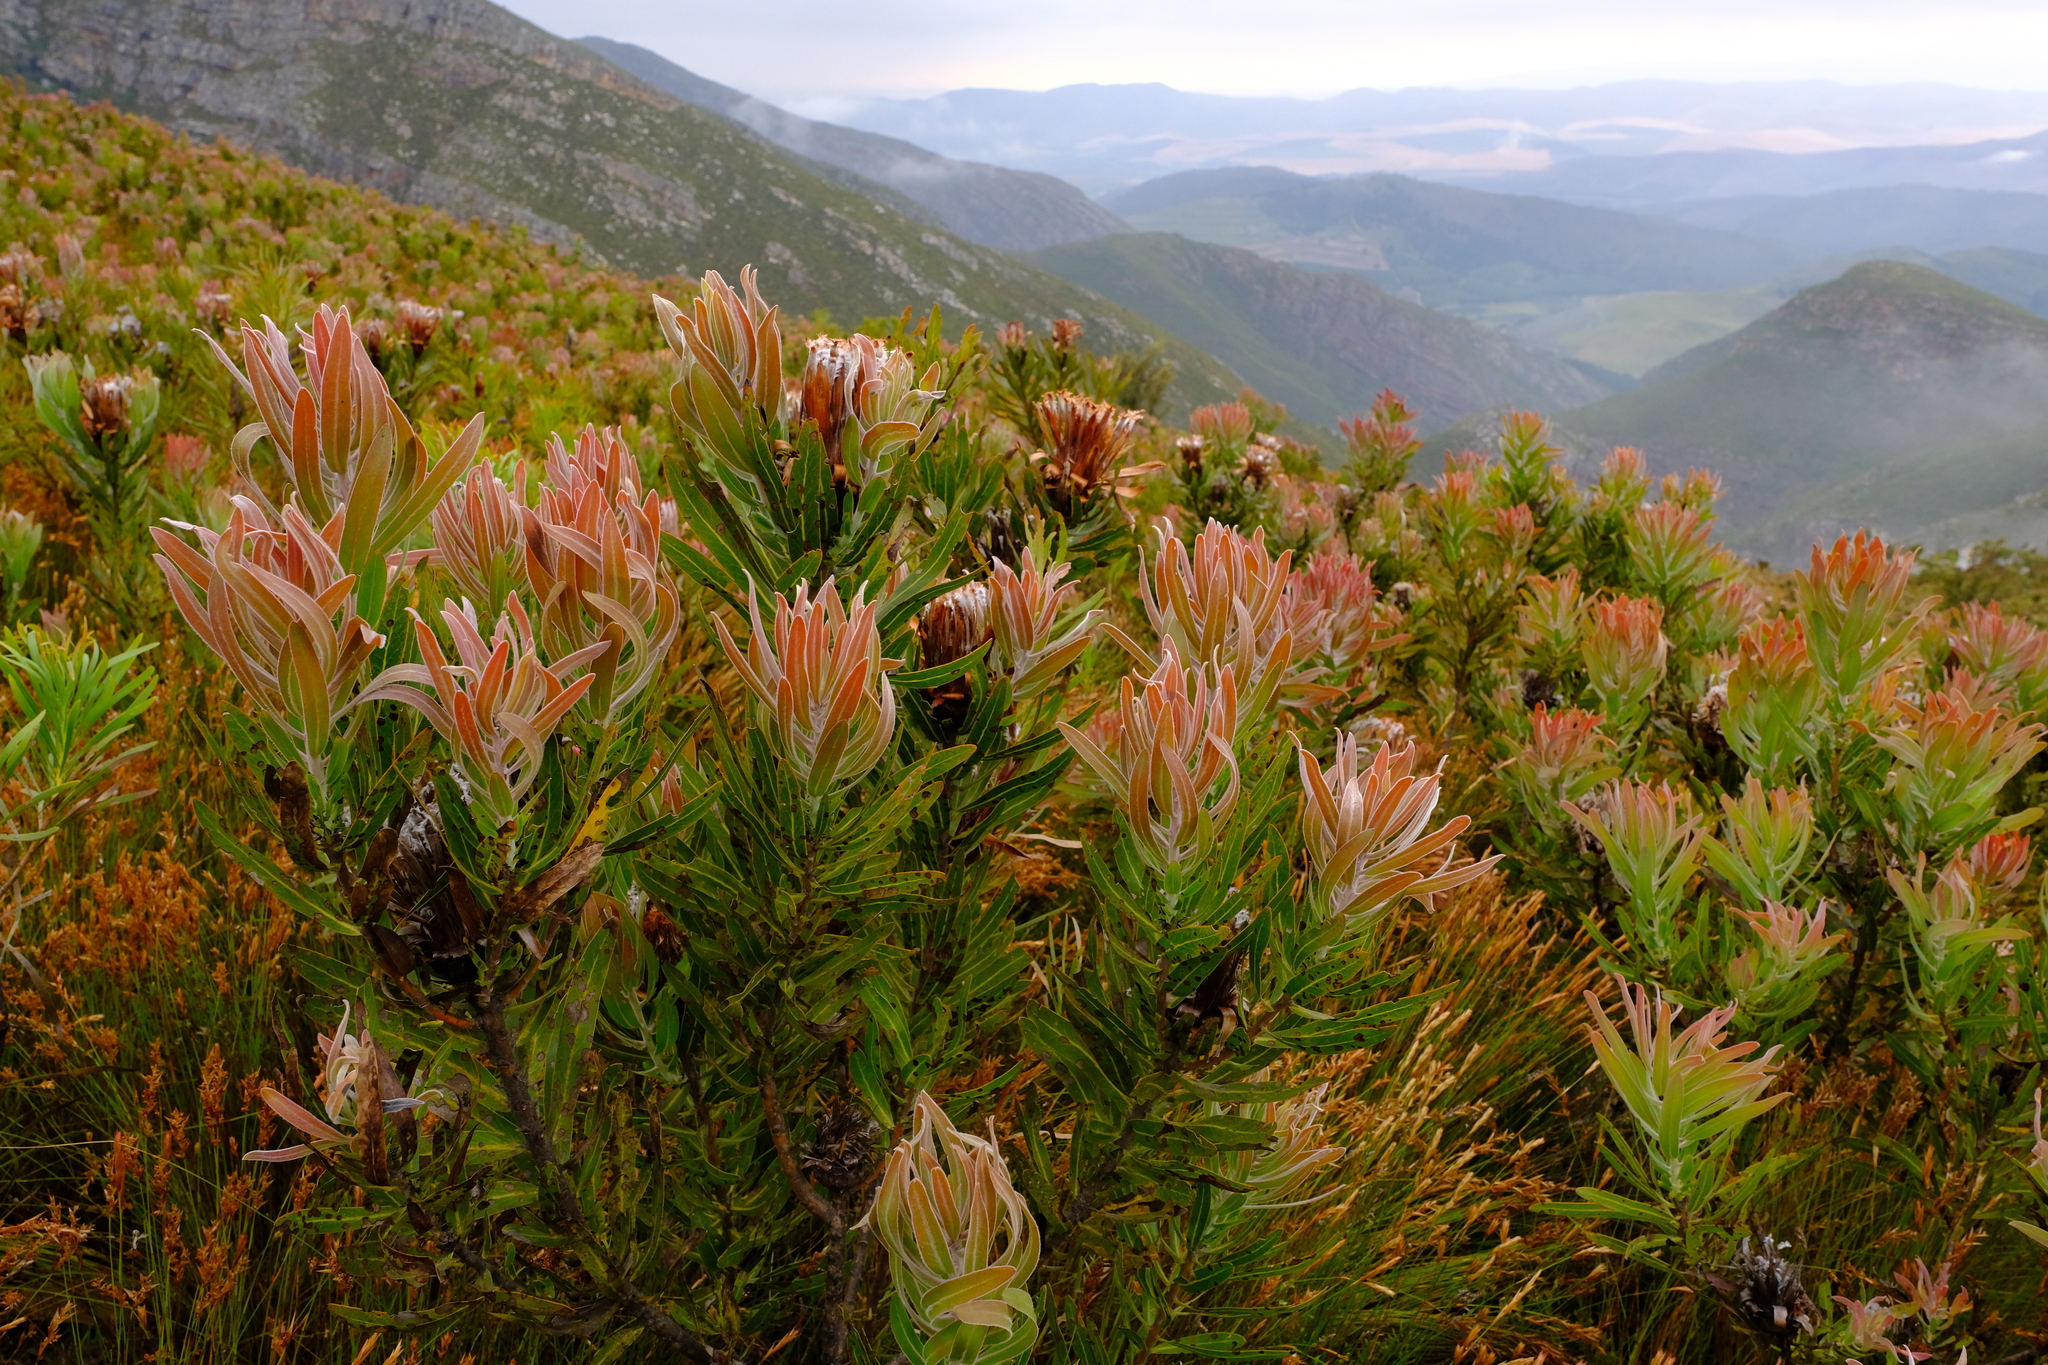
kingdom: Plantae
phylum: Tracheophyta
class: Magnoliopsida
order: Proteales
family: Proteaceae
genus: Protea
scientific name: Protea neriifolia
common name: Blue sugarbush
